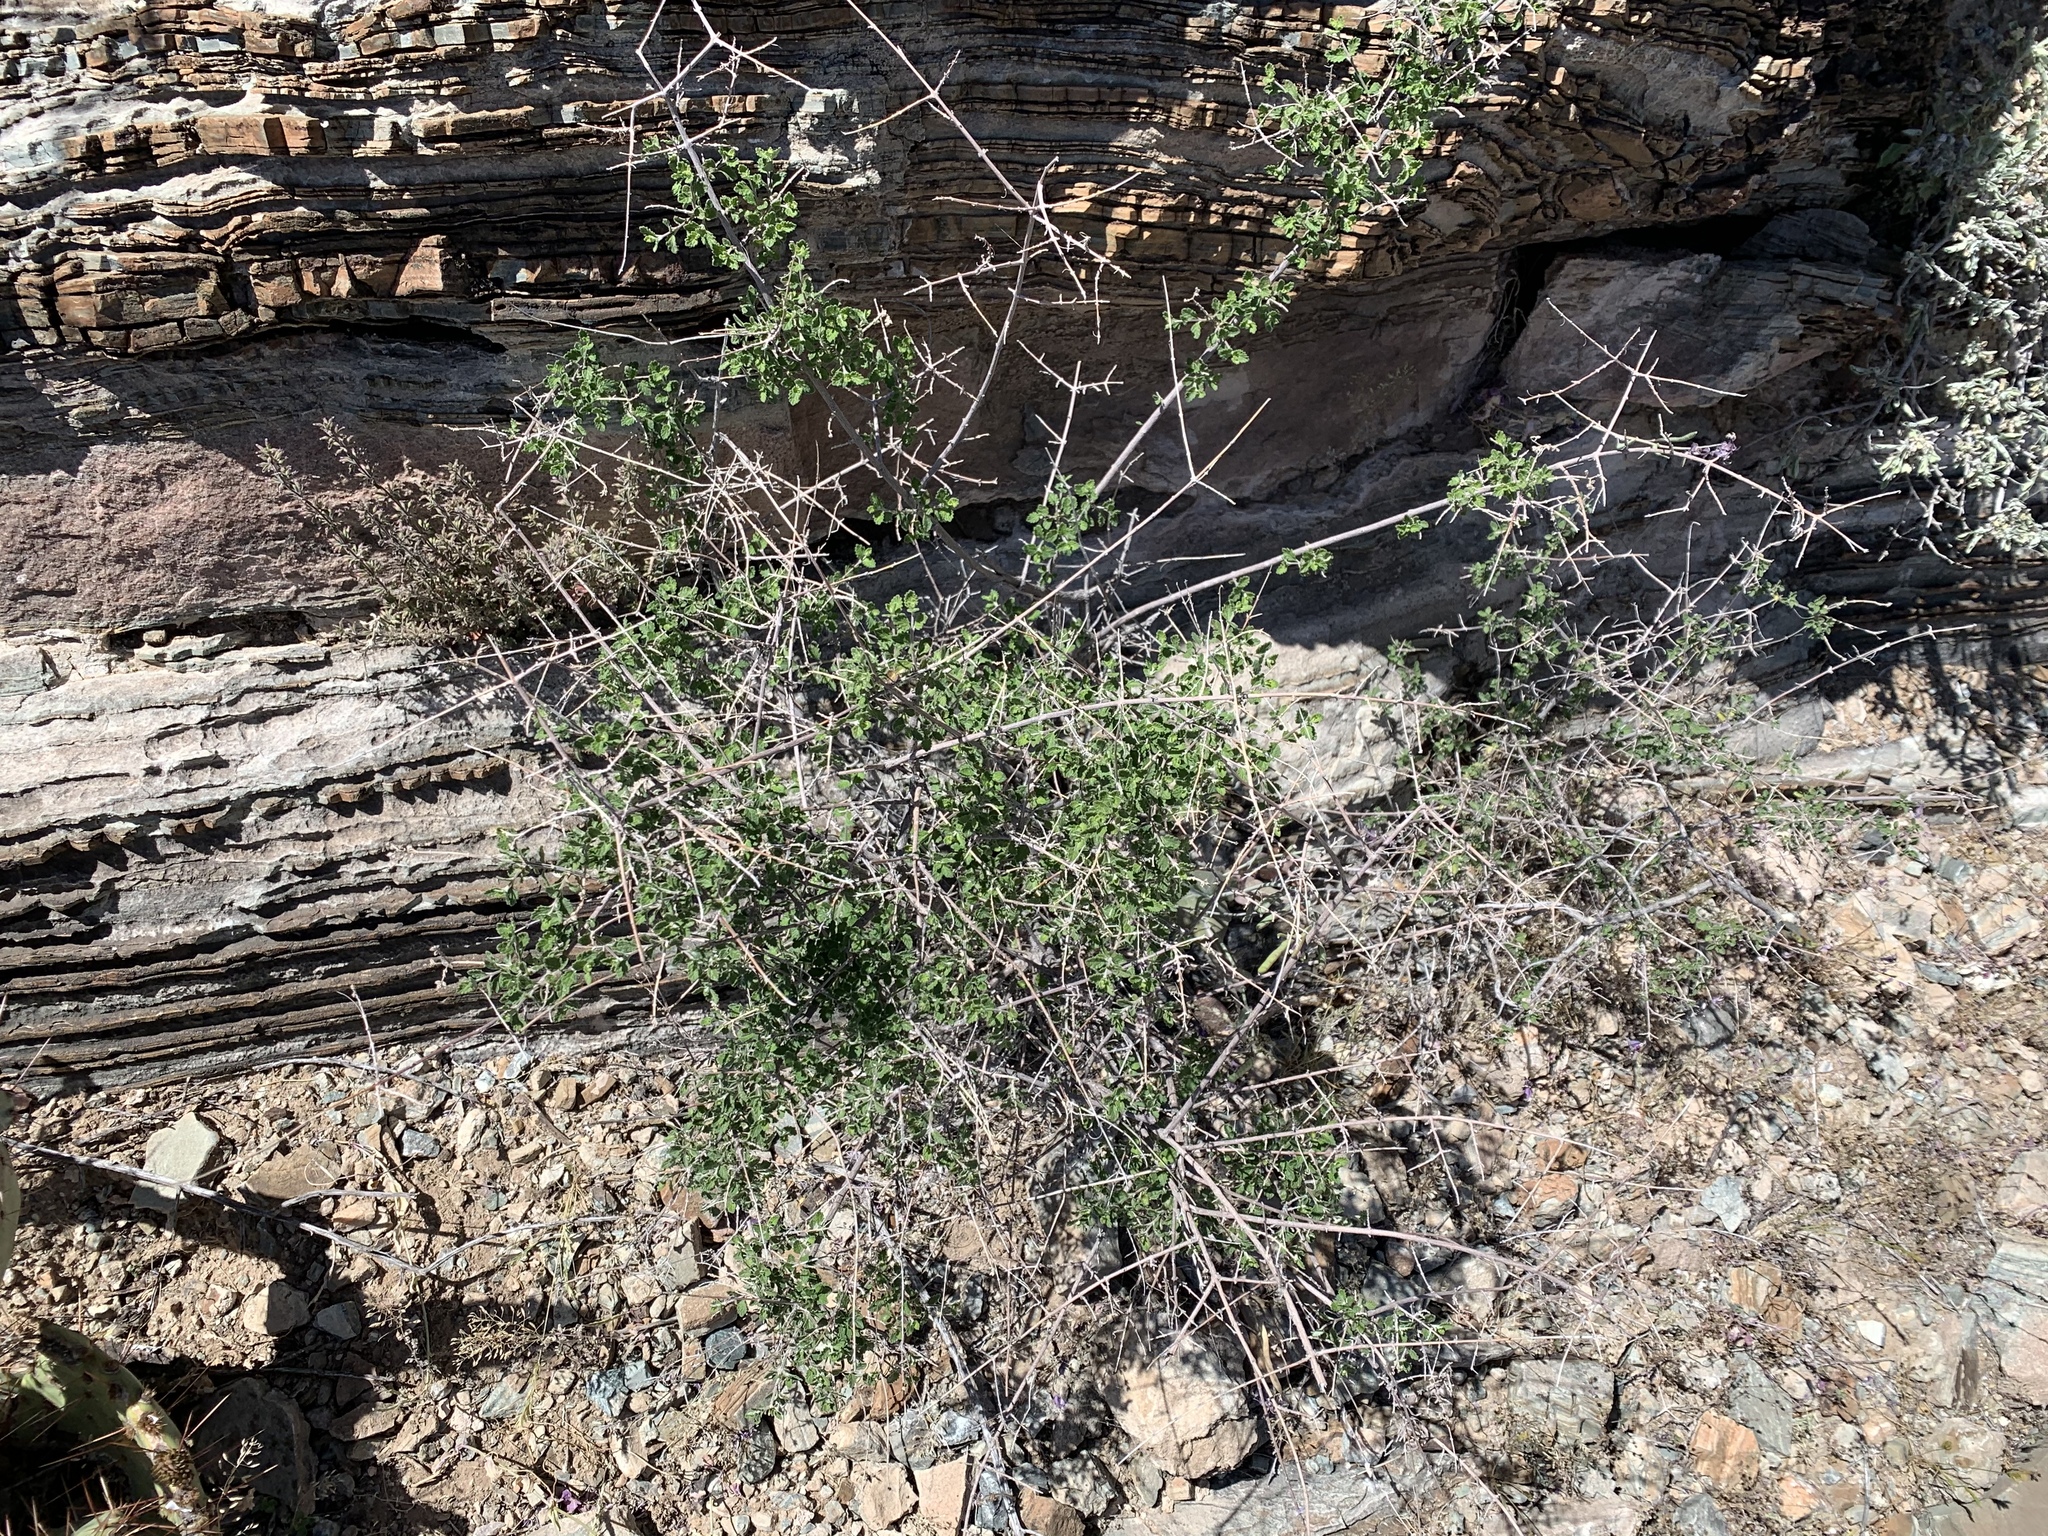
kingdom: Plantae
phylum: Tracheophyta
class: Magnoliopsida
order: Lamiales
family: Verbenaceae
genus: Aloysia
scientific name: Aloysia wrightii
